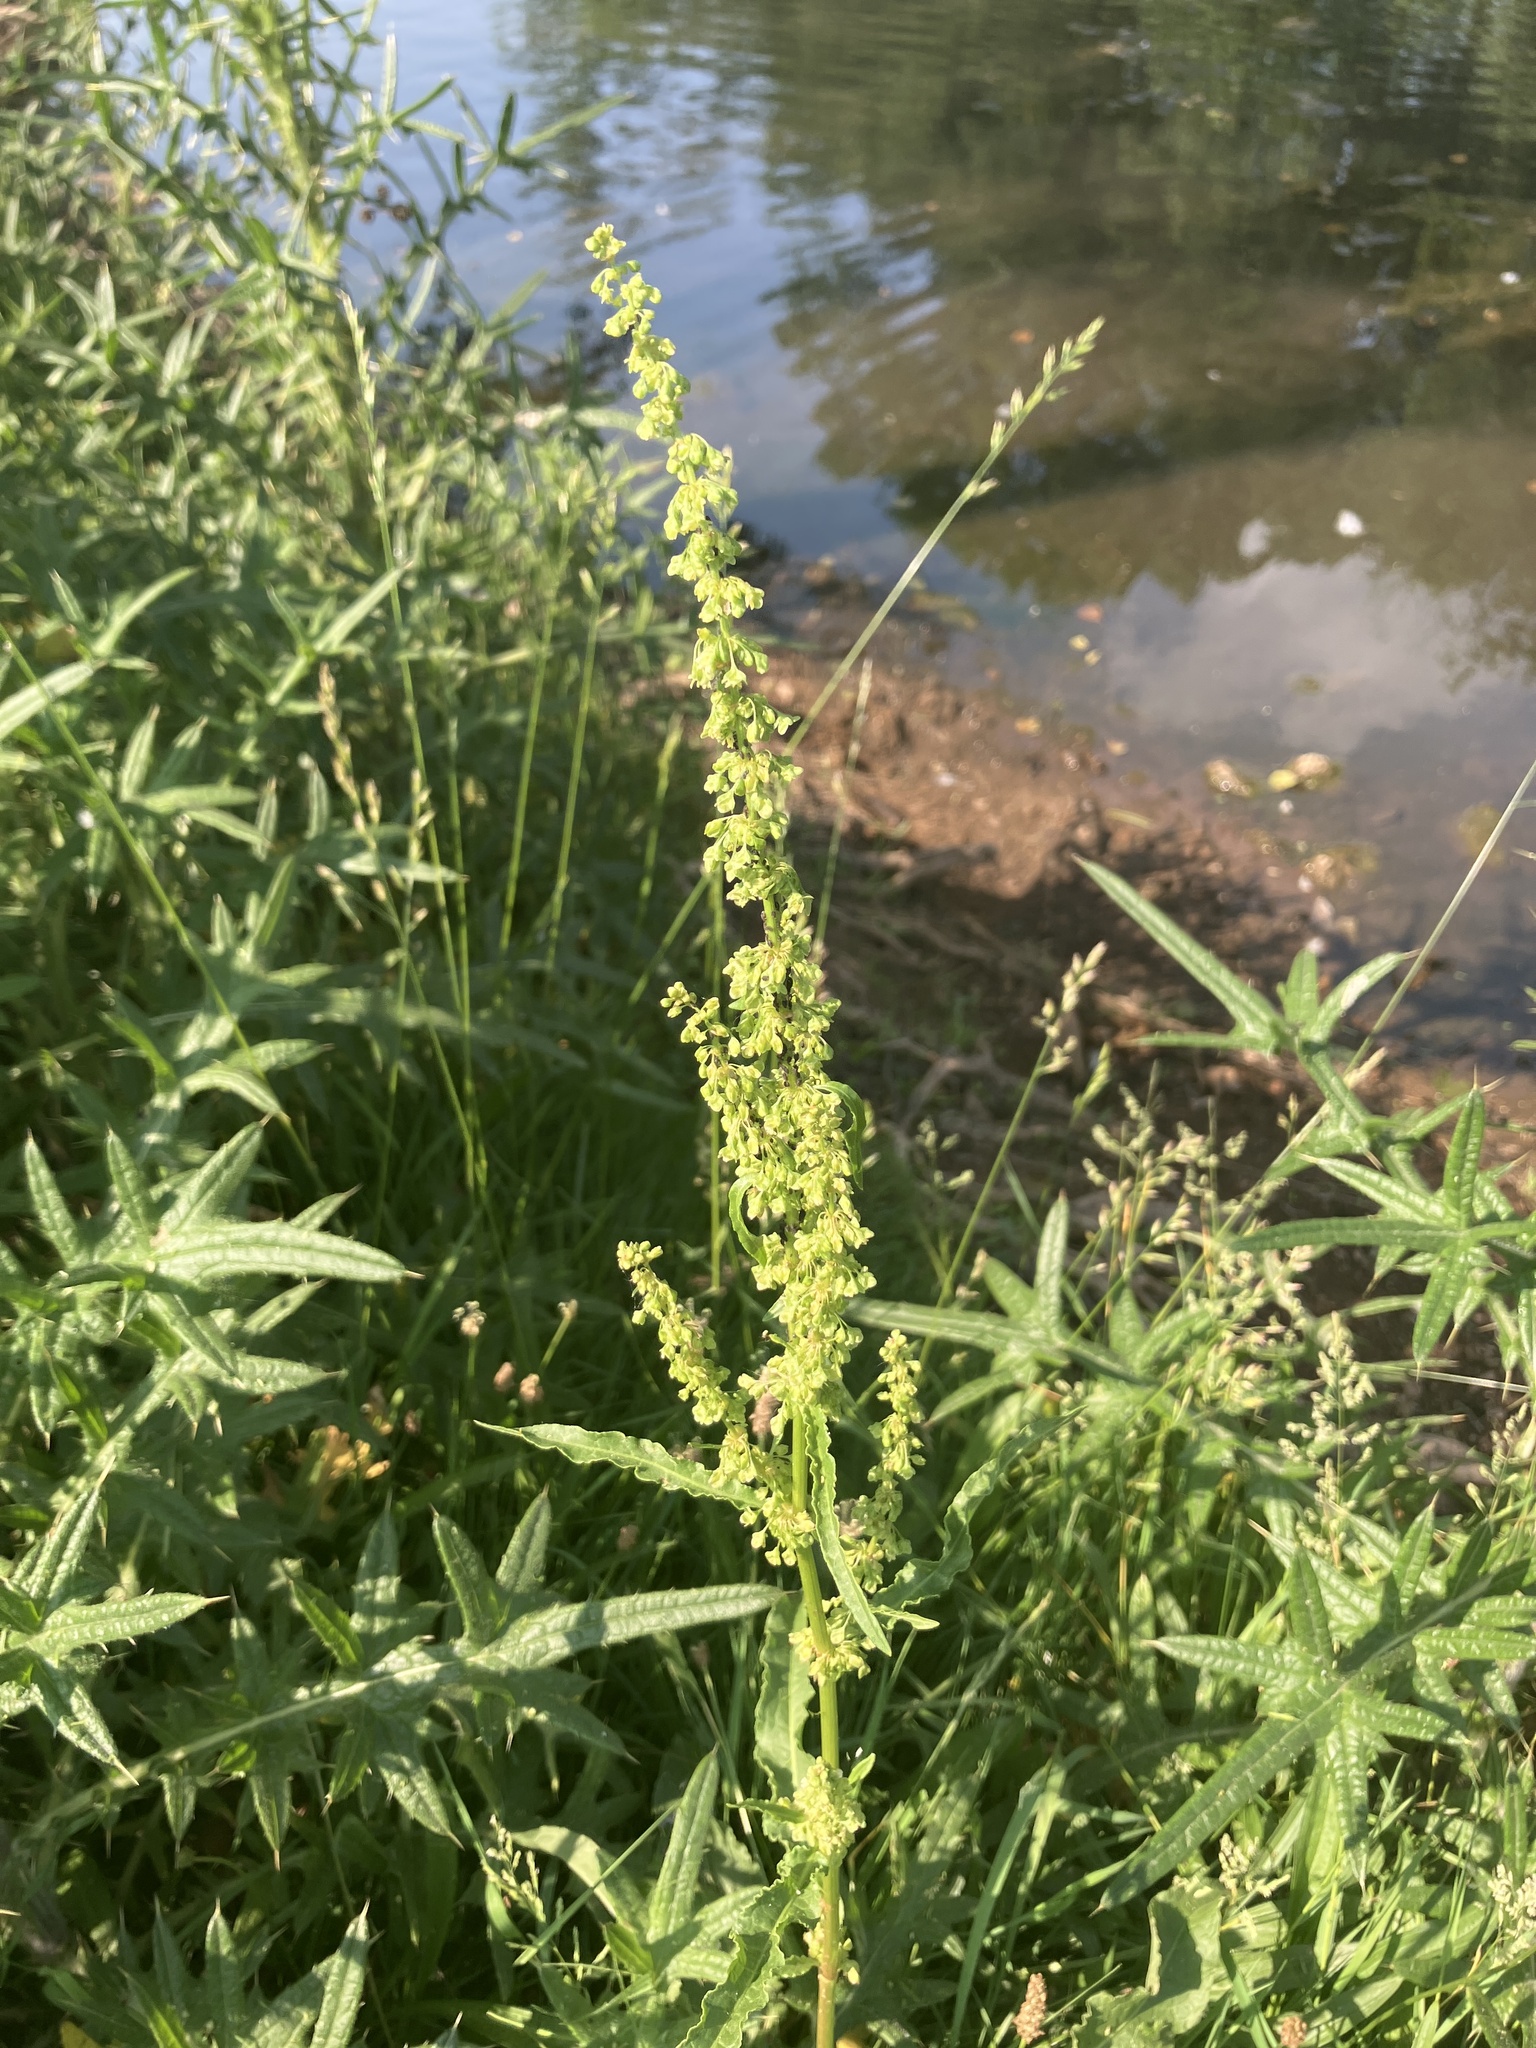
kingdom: Plantae
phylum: Tracheophyta
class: Magnoliopsida
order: Caryophyllales
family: Polygonaceae
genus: Rumex
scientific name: Rumex crispus
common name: Curled dock
